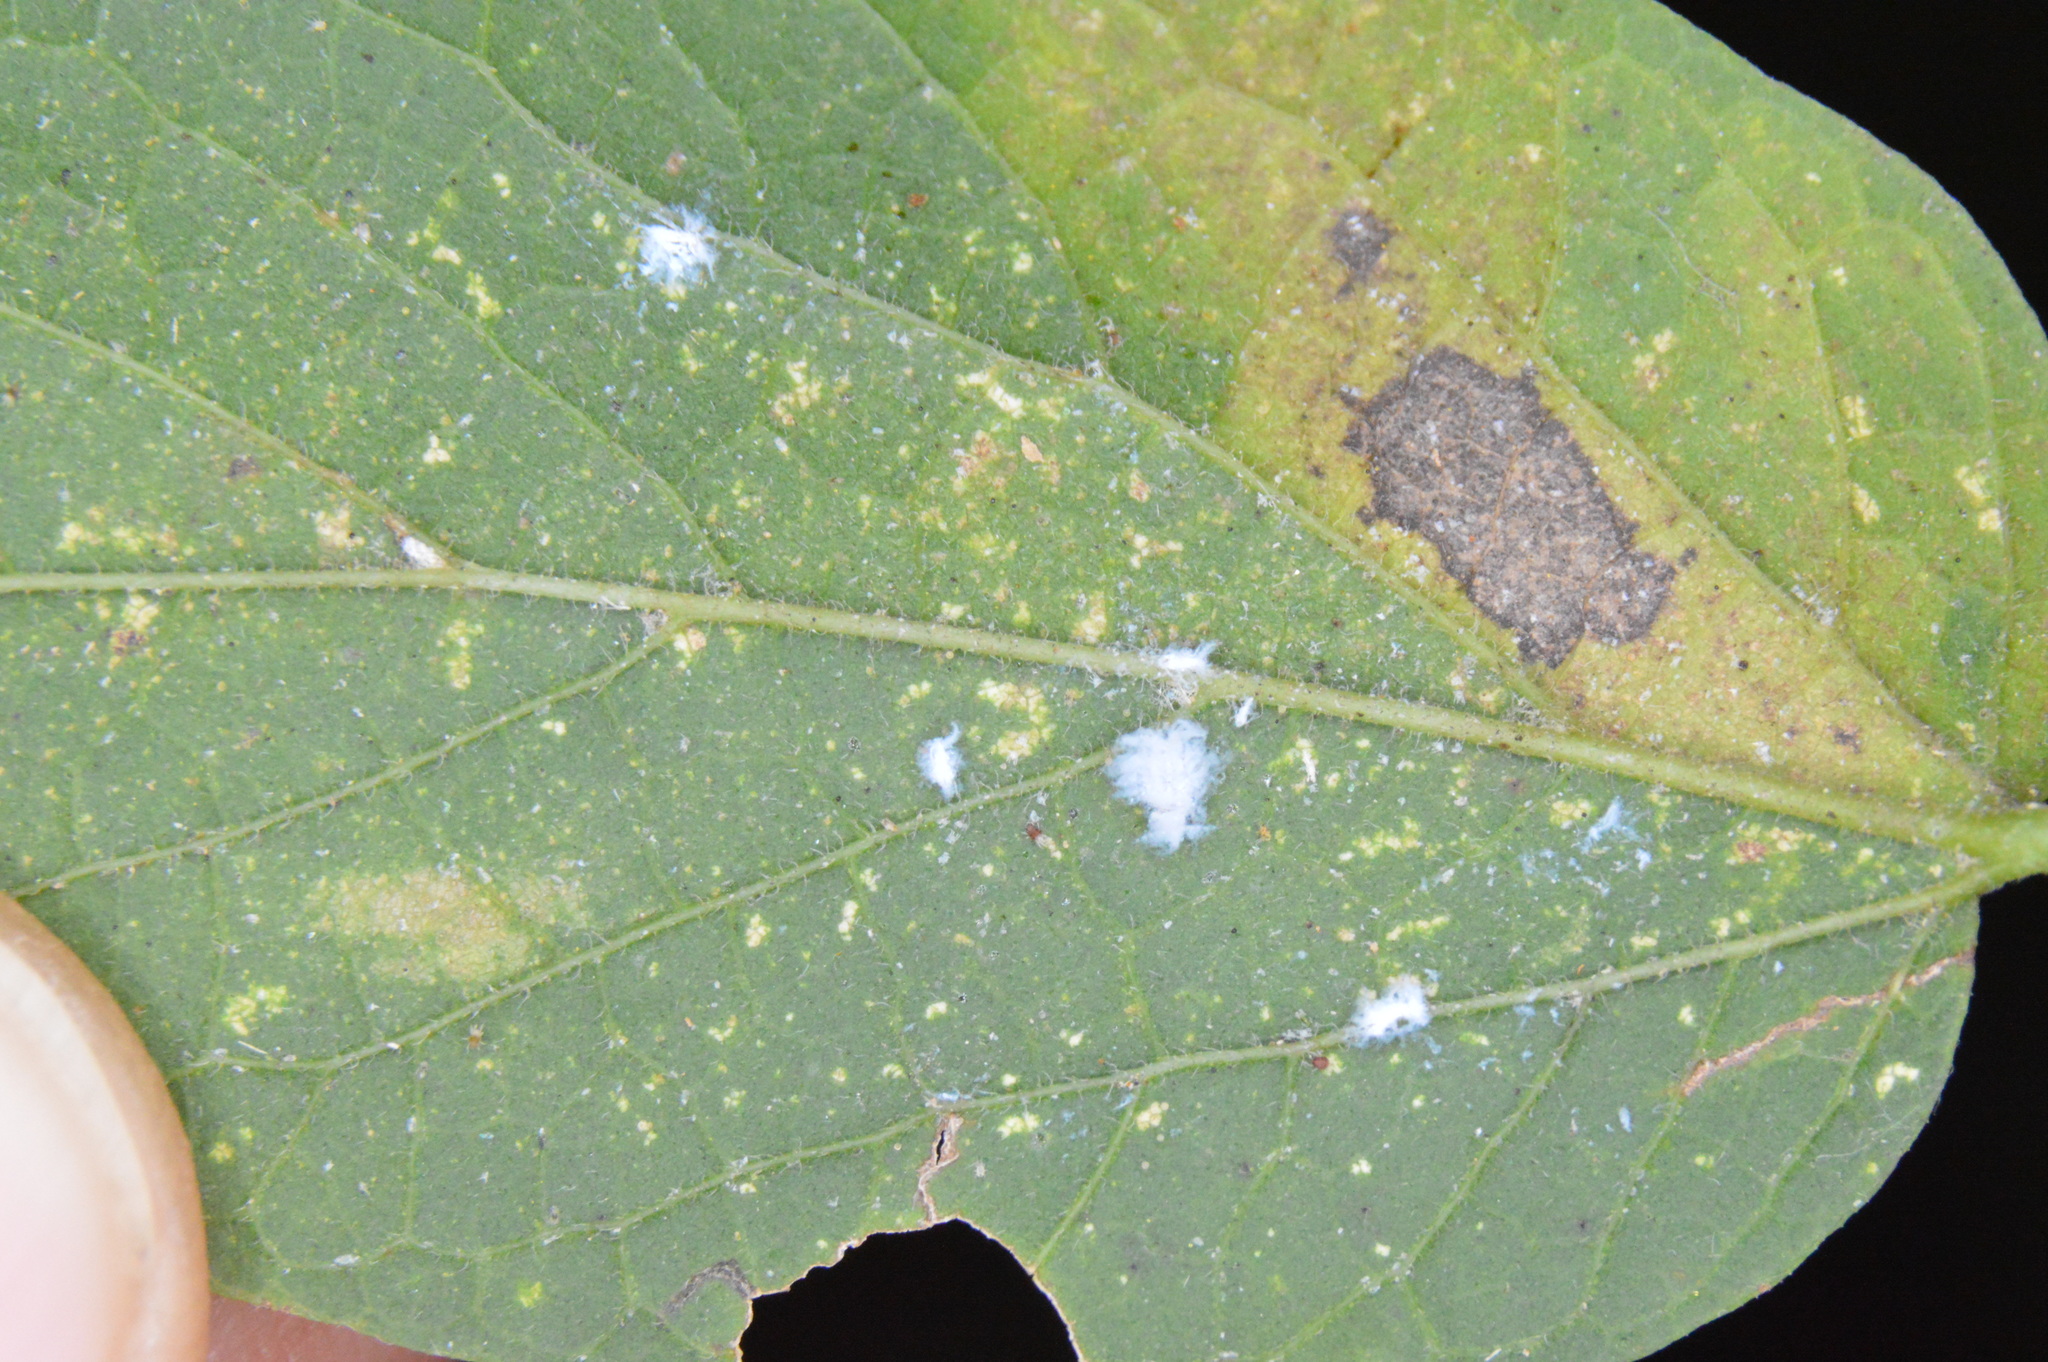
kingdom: Animalia
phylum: Arthropoda
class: Insecta
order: Hemiptera
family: Aphididae
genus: Shivaphis
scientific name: Shivaphis celti
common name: Asian wooly hackberry aphid
